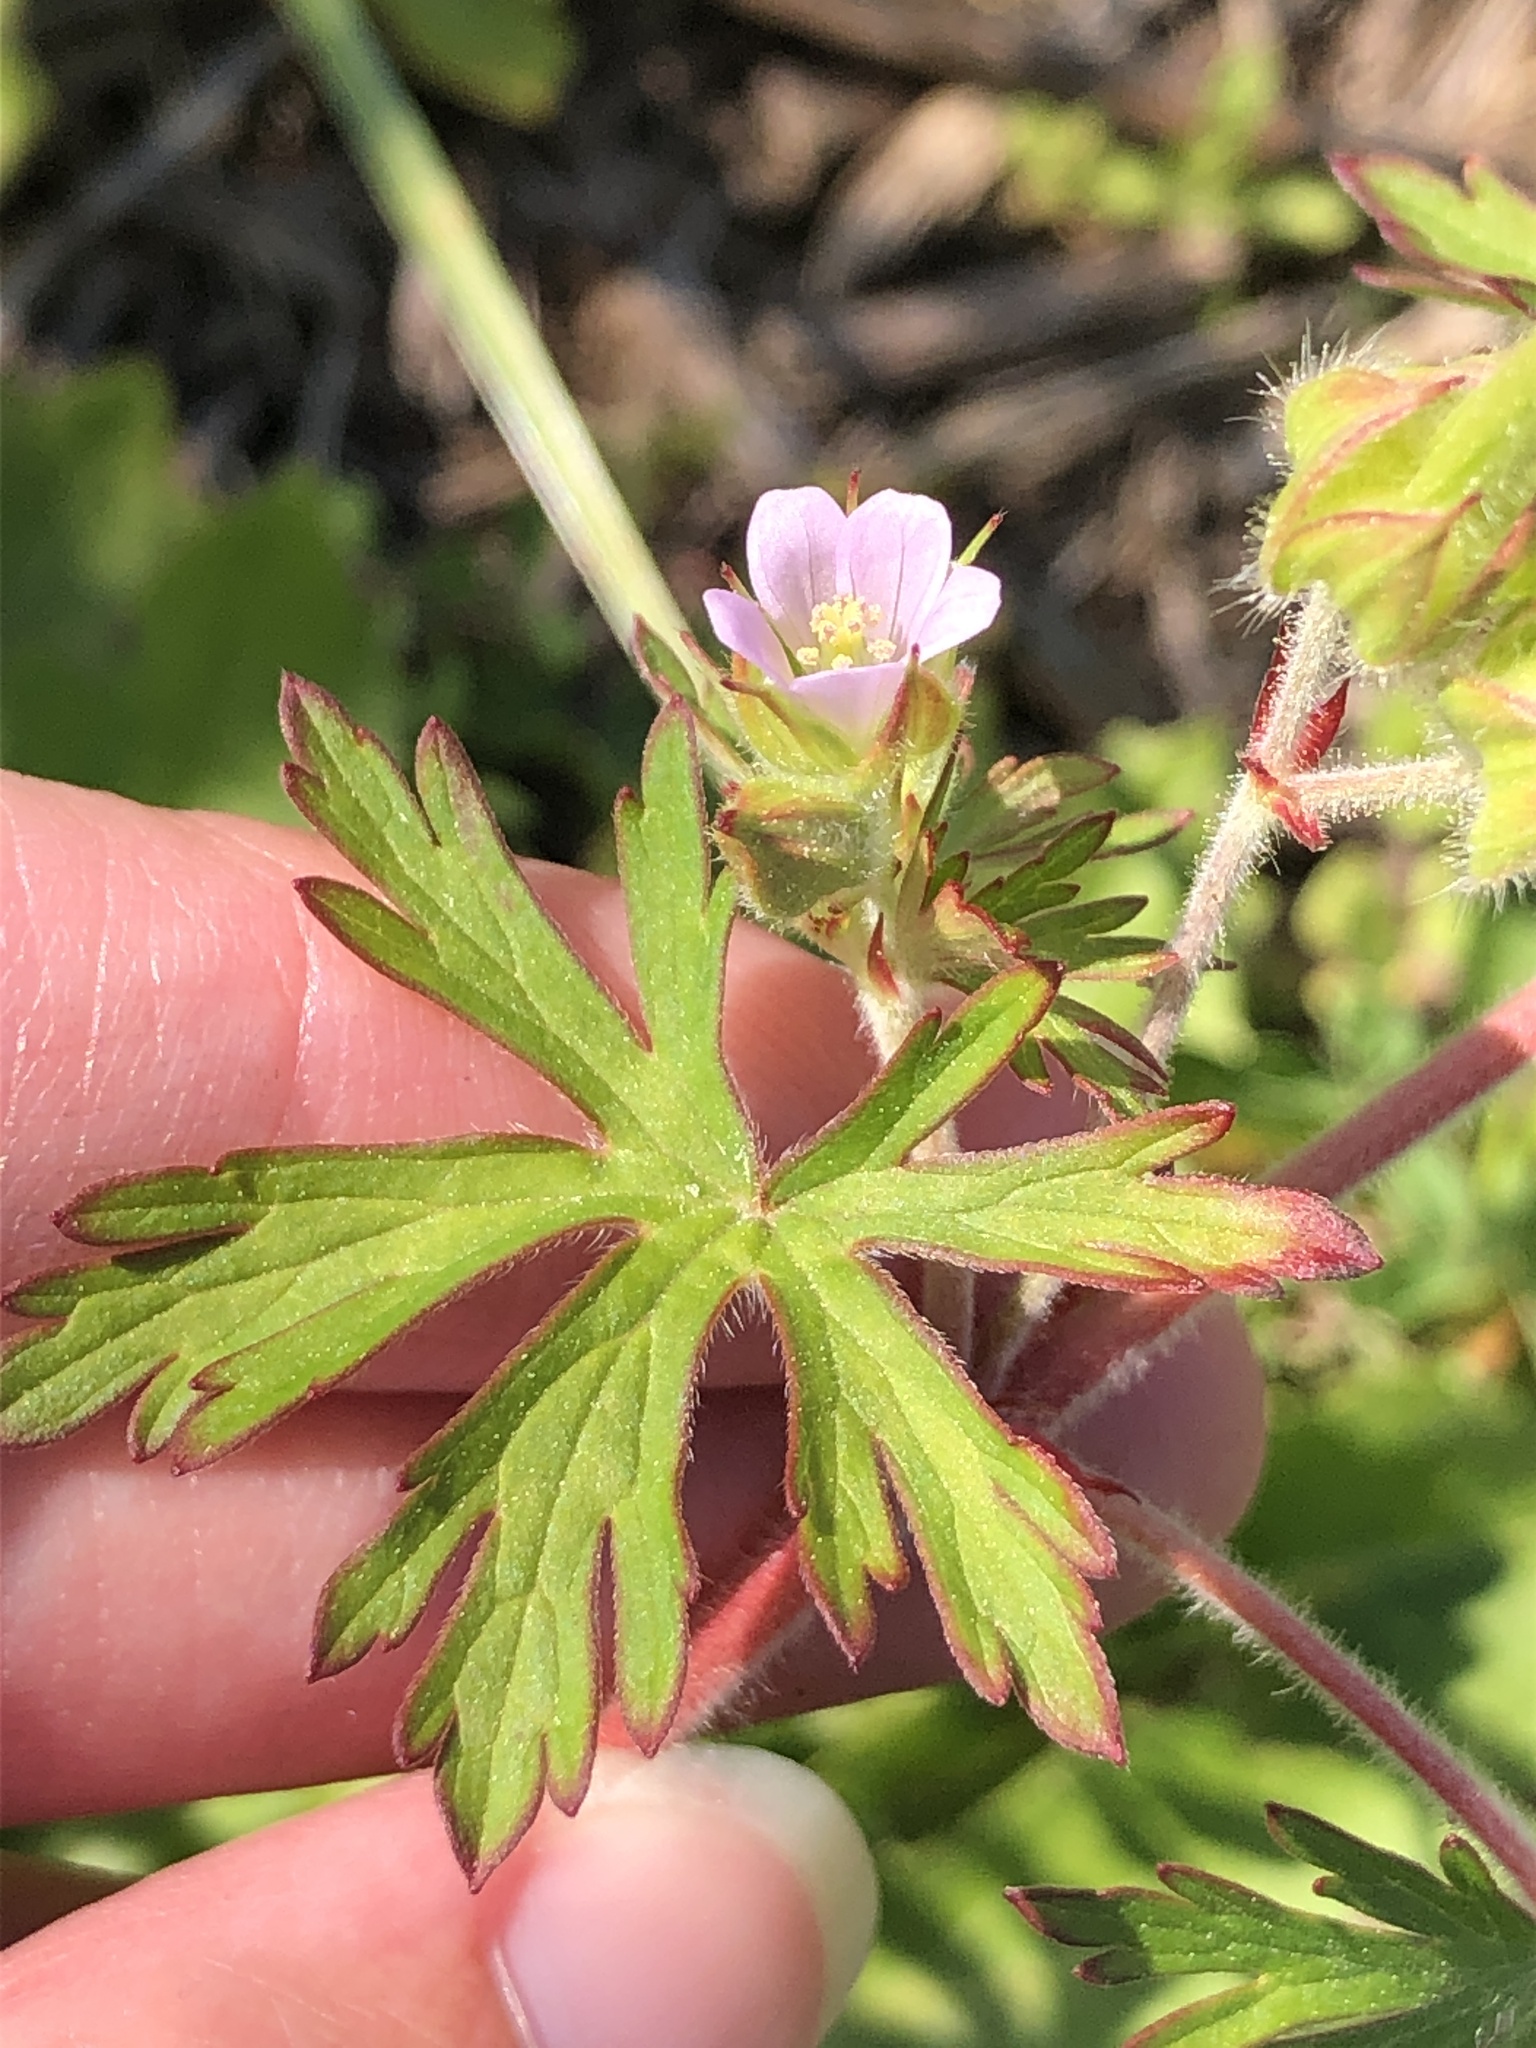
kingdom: Plantae
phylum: Tracheophyta
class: Magnoliopsida
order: Geraniales
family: Geraniaceae
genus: Geranium
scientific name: Geranium carolinianum
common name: Carolina crane's-bill
